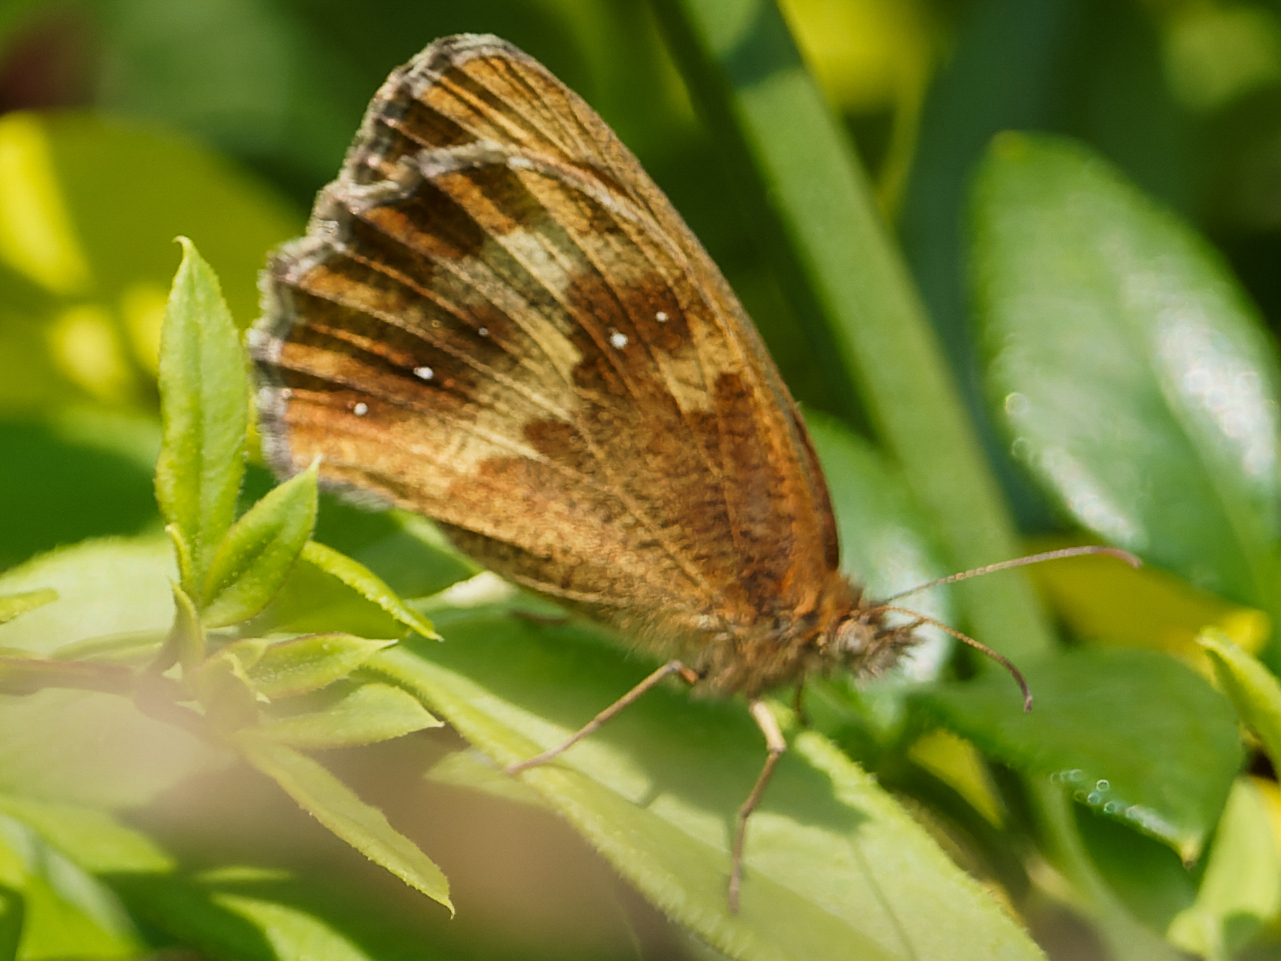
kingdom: Animalia
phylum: Arthropoda
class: Insecta
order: Lepidoptera
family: Nymphalidae
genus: Pyronia
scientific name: Pyronia tithonus
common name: Gatekeeper
